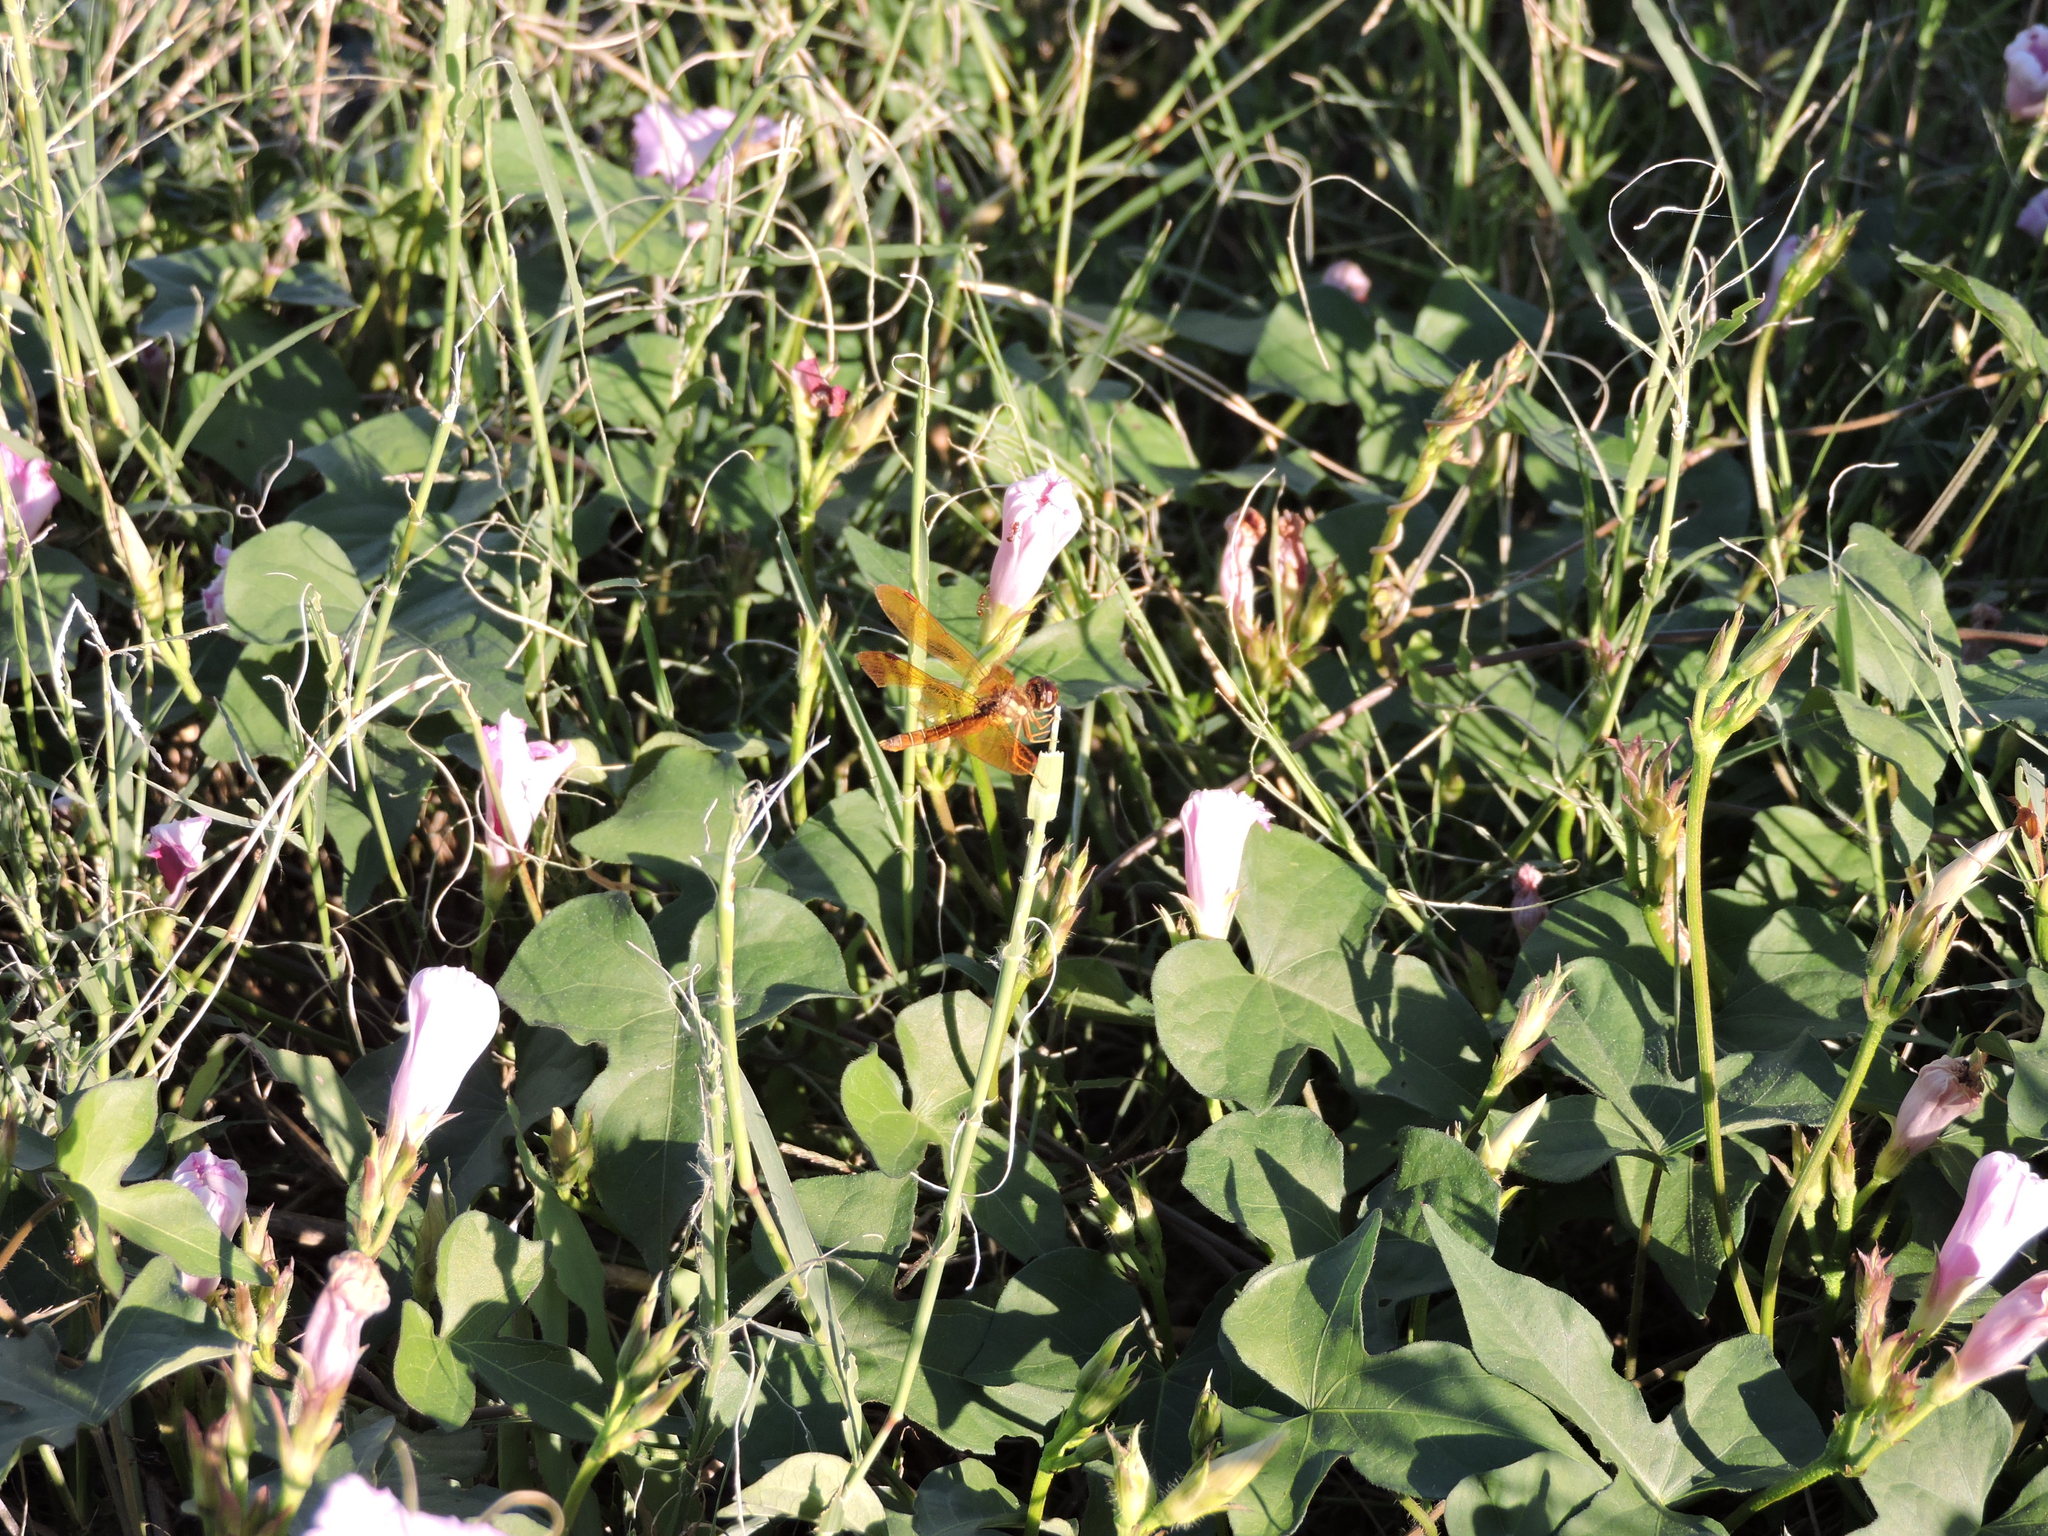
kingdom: Animalia
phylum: Arthropoda
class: Insecta
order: Odonata
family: Libellulidae
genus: Perithemis
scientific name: Perithemis tenera
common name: Eastern amberwing
